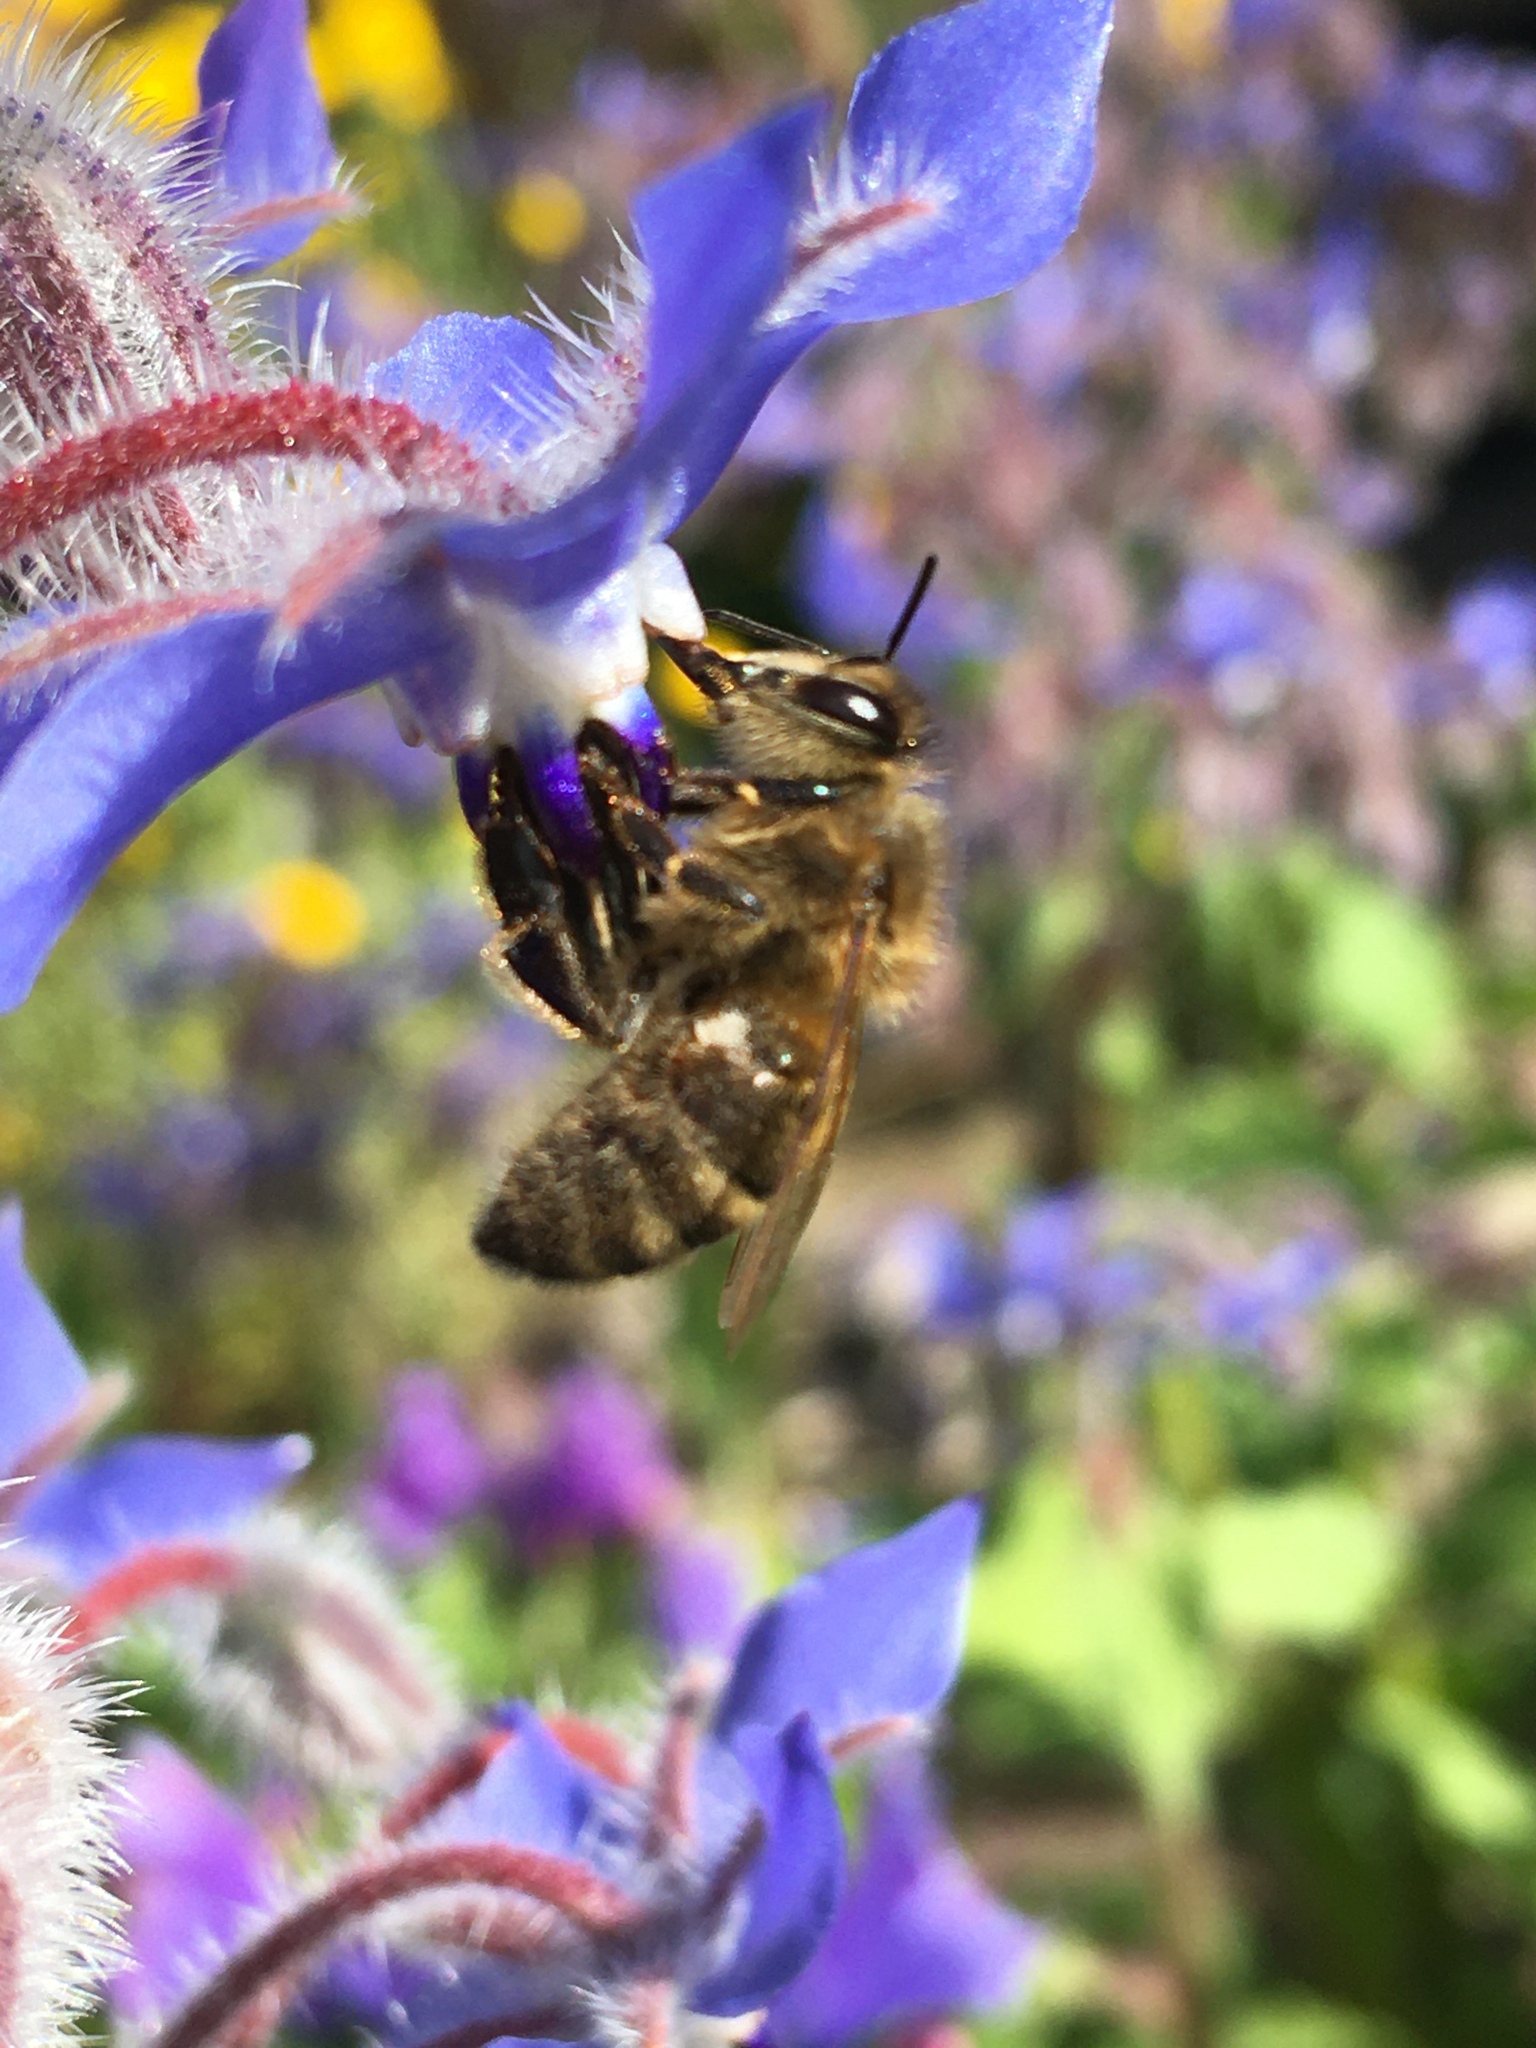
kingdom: Animalia
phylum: Arthropoda
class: Insecta
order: Hymenoptera
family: Apidae
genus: Apis
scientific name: Apis mellifera
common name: Honey bee
